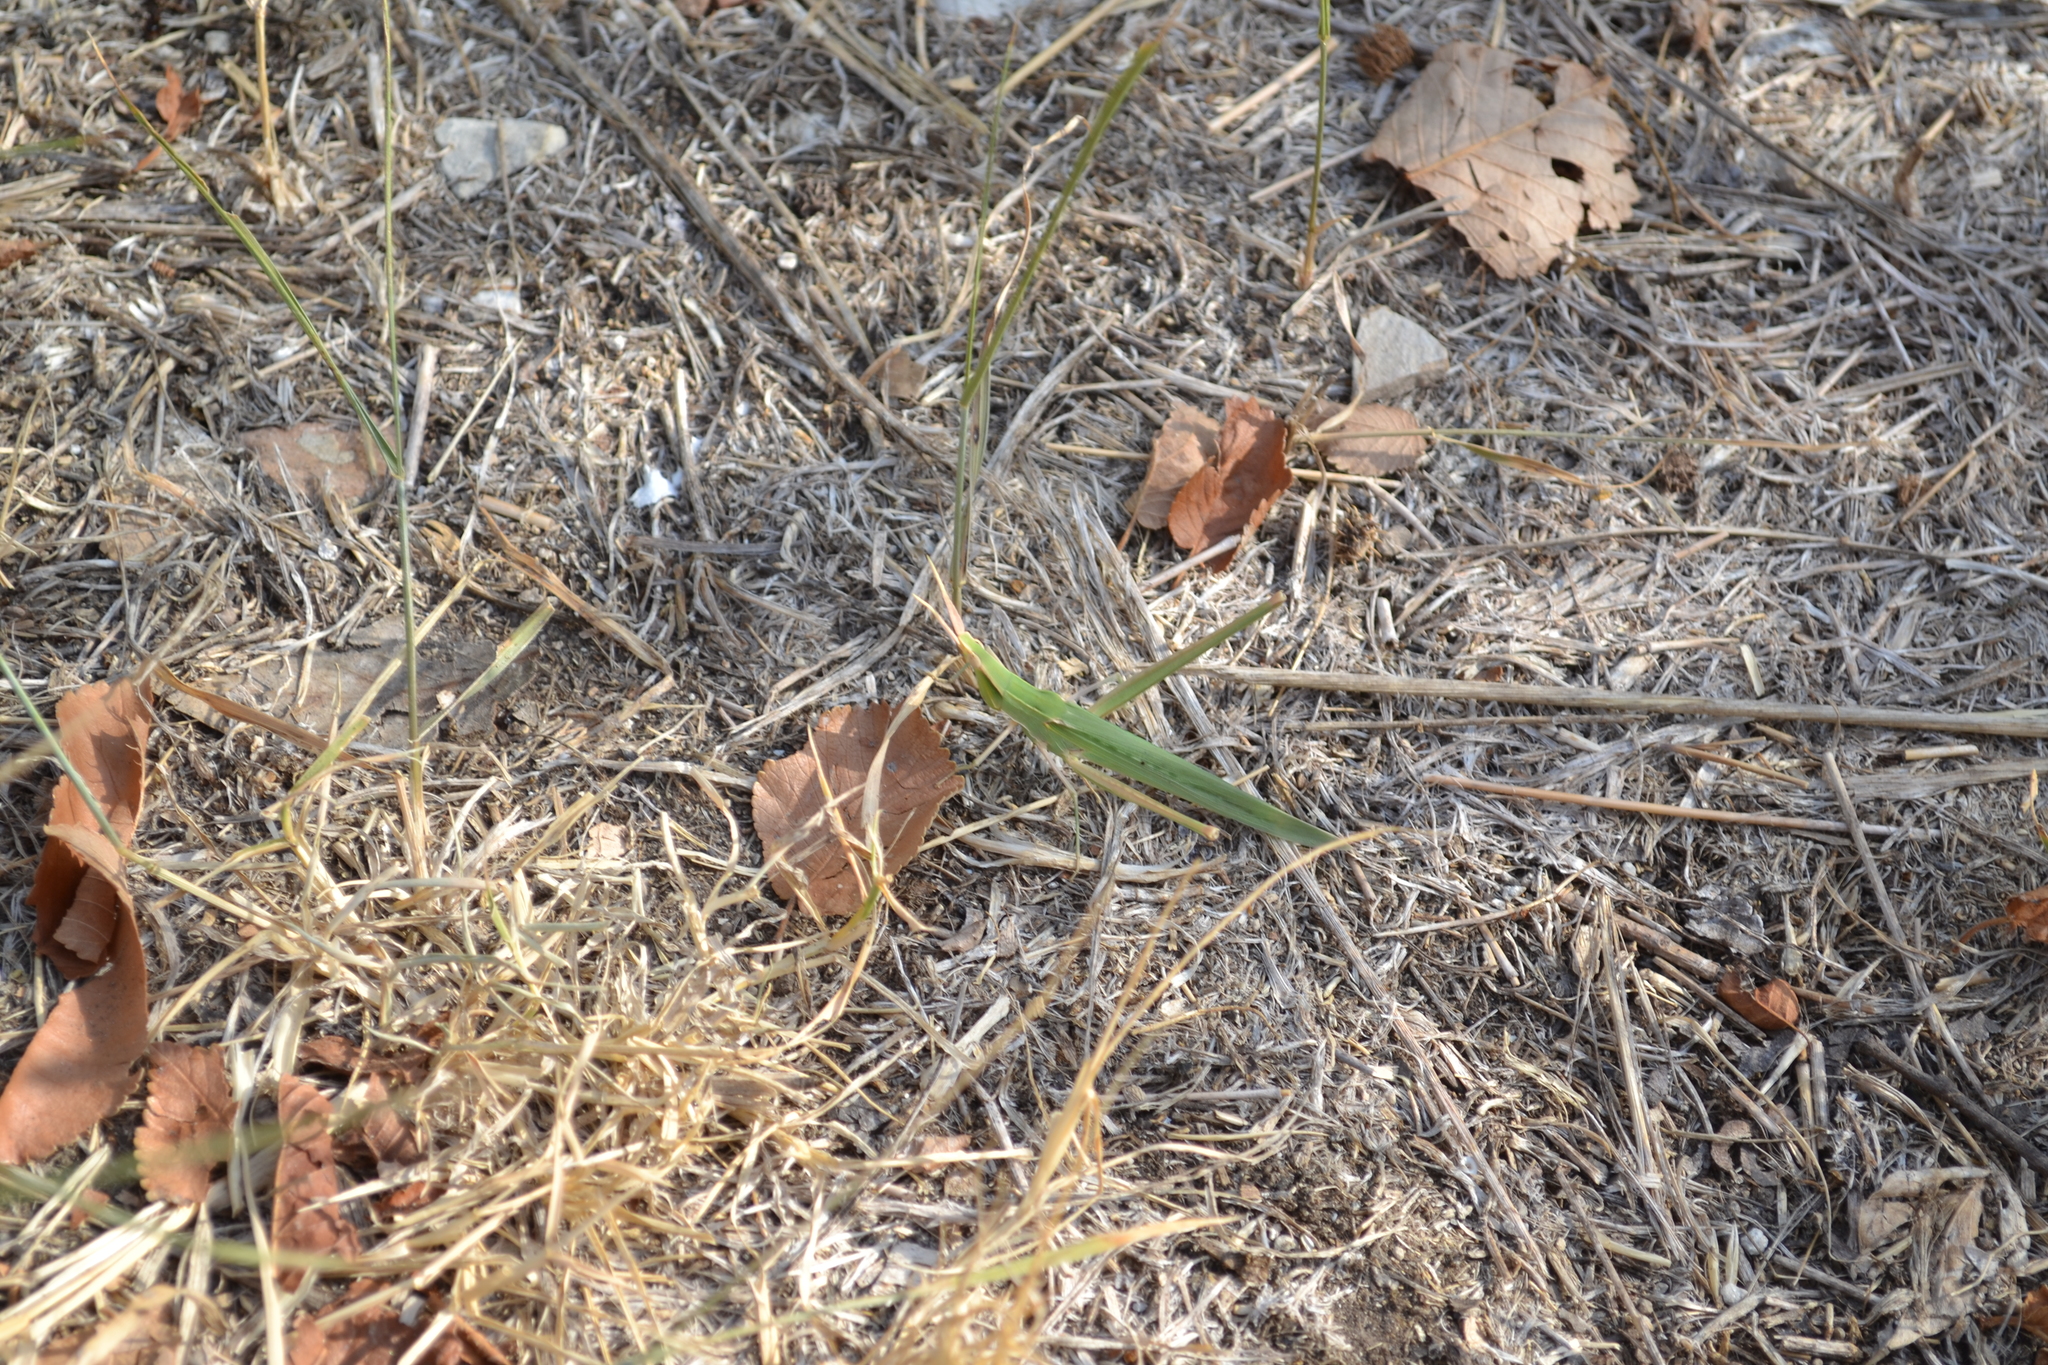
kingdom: Animalia
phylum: Arthropoda
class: Insecta
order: Orthoptera
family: Acrididae
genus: Acrida
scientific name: Acrida ungarica
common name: Common cone-headed grasshopper
